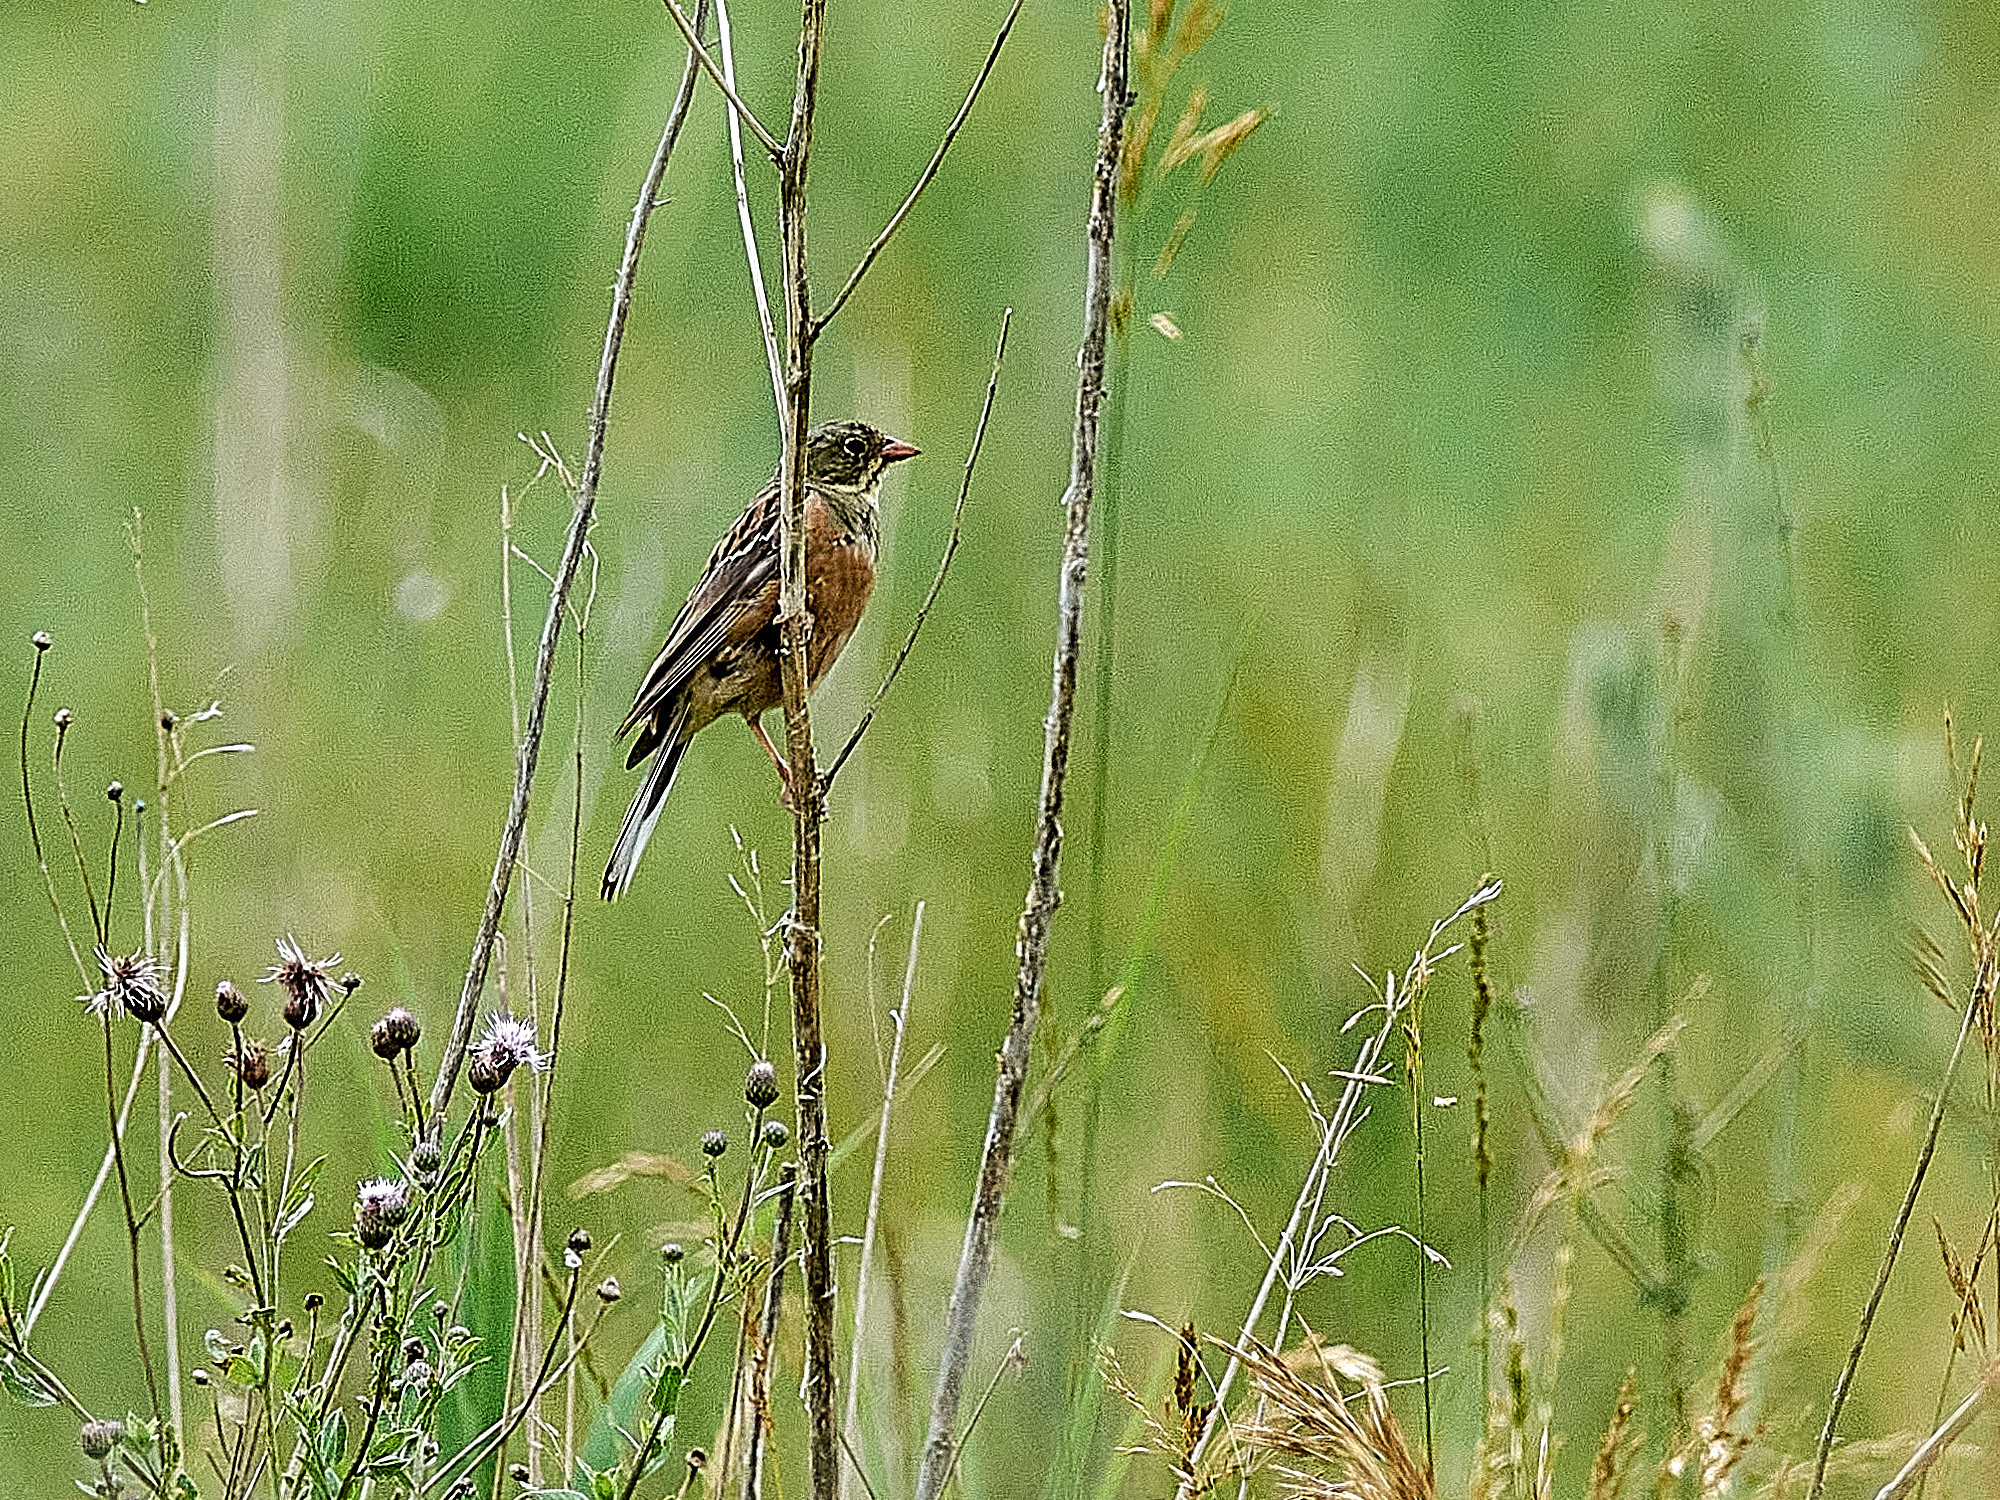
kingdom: Animalia
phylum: Chordata
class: Aves
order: Passeriformes
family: Emberizidae
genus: Emberiza
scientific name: Emberiza hortulana
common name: Ortolan bunting
